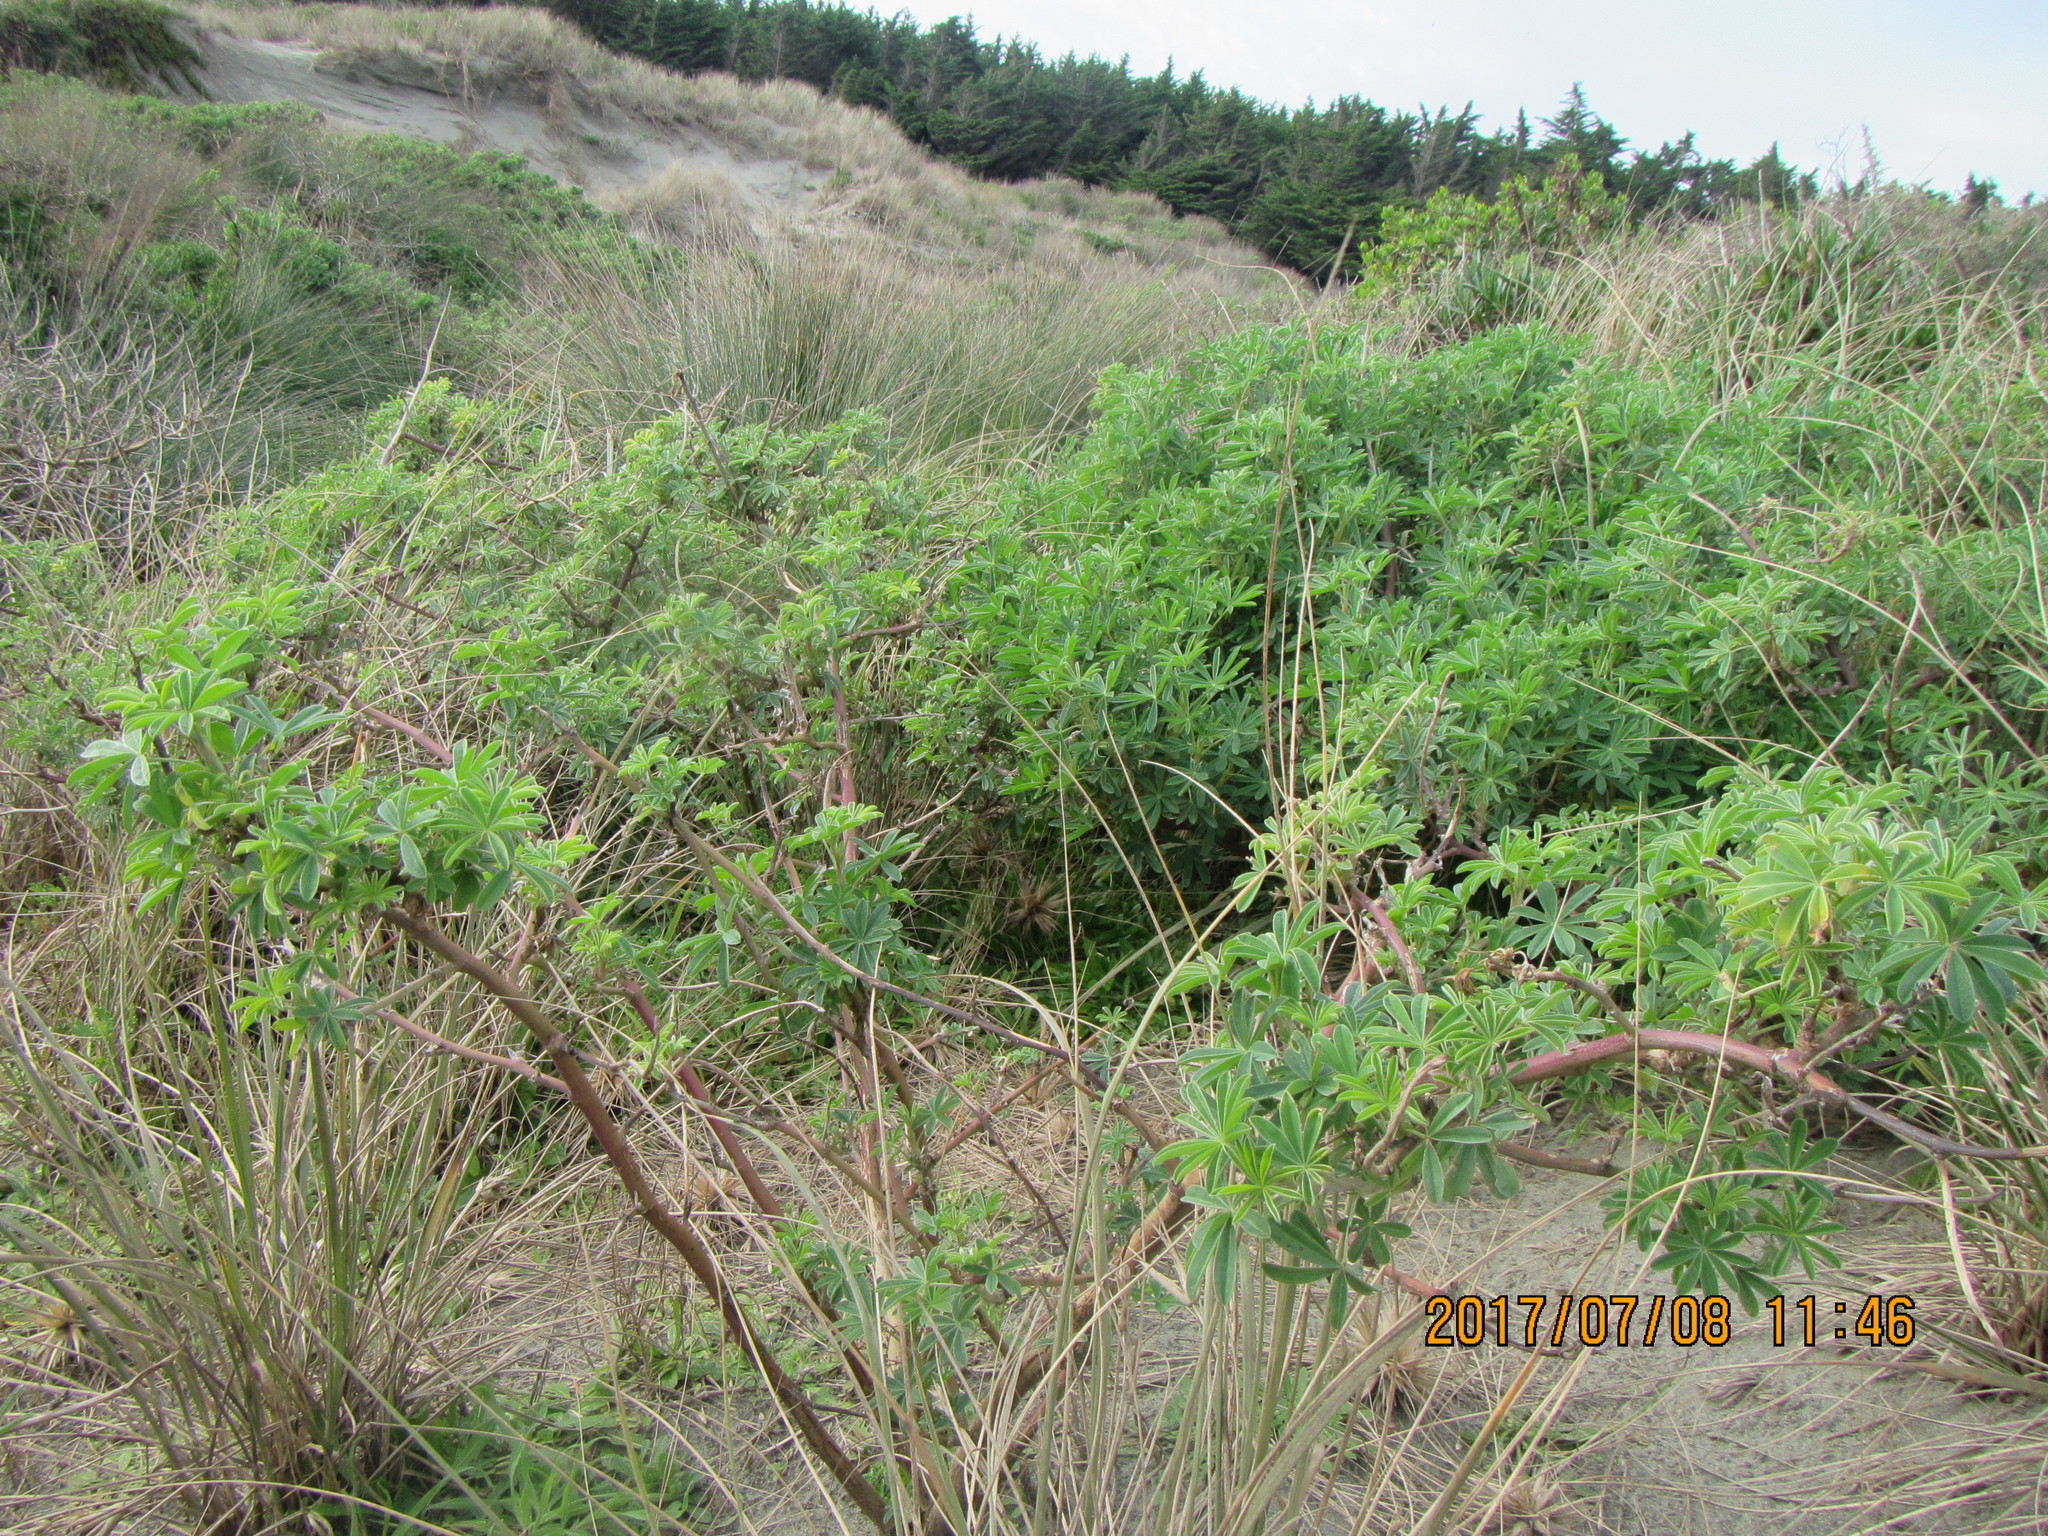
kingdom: Plantae
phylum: Tracheophyta
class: Magnoliopsida
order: Fabales
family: Fabaceae
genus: Lupinus
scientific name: Lupinus arboreus
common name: Yellow bush lupine
